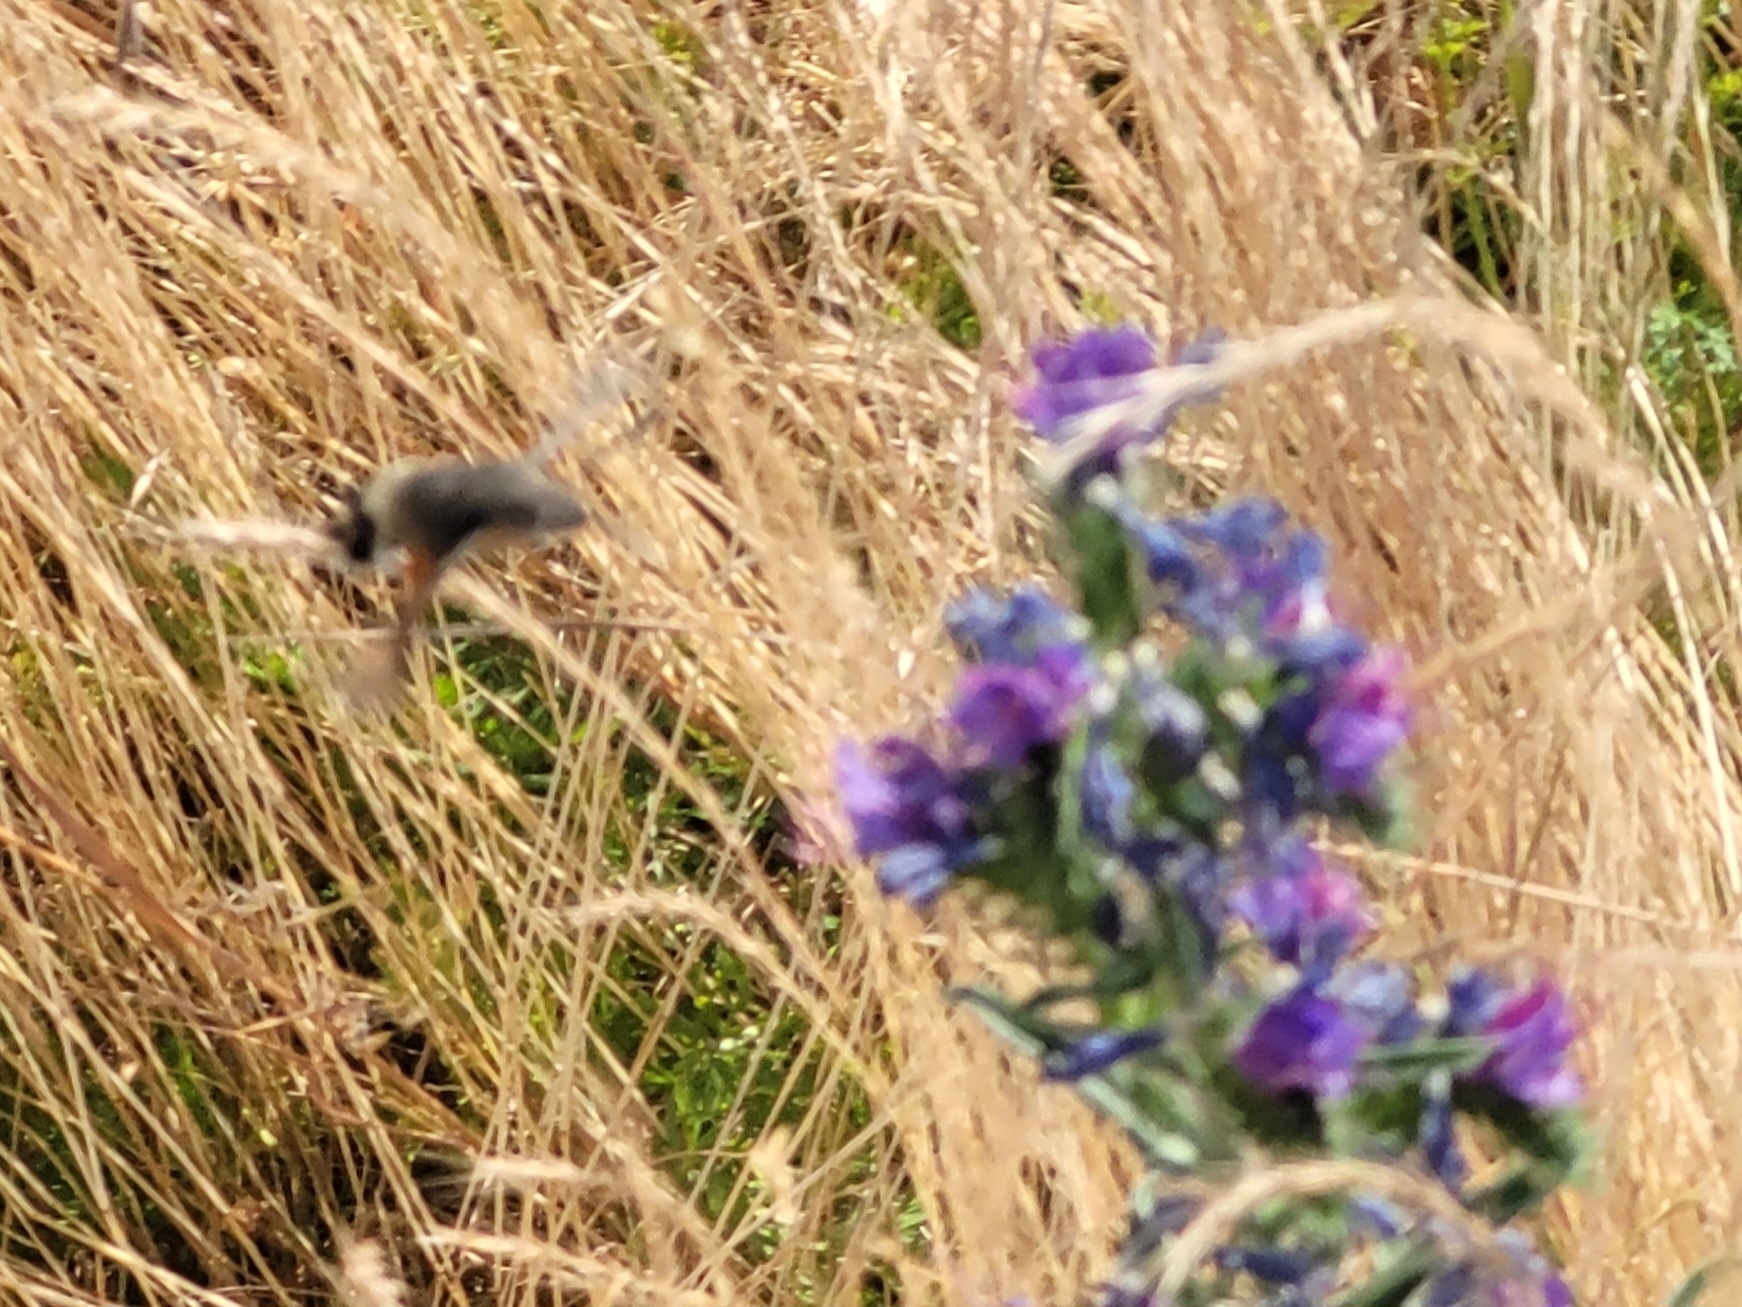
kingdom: Animalia
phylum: Arthropoda
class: Insecta
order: Lepidoptera
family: Sphingidae
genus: Macroglossum
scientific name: Macroglossum stellatarum
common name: Humming-bird hawk-moth
